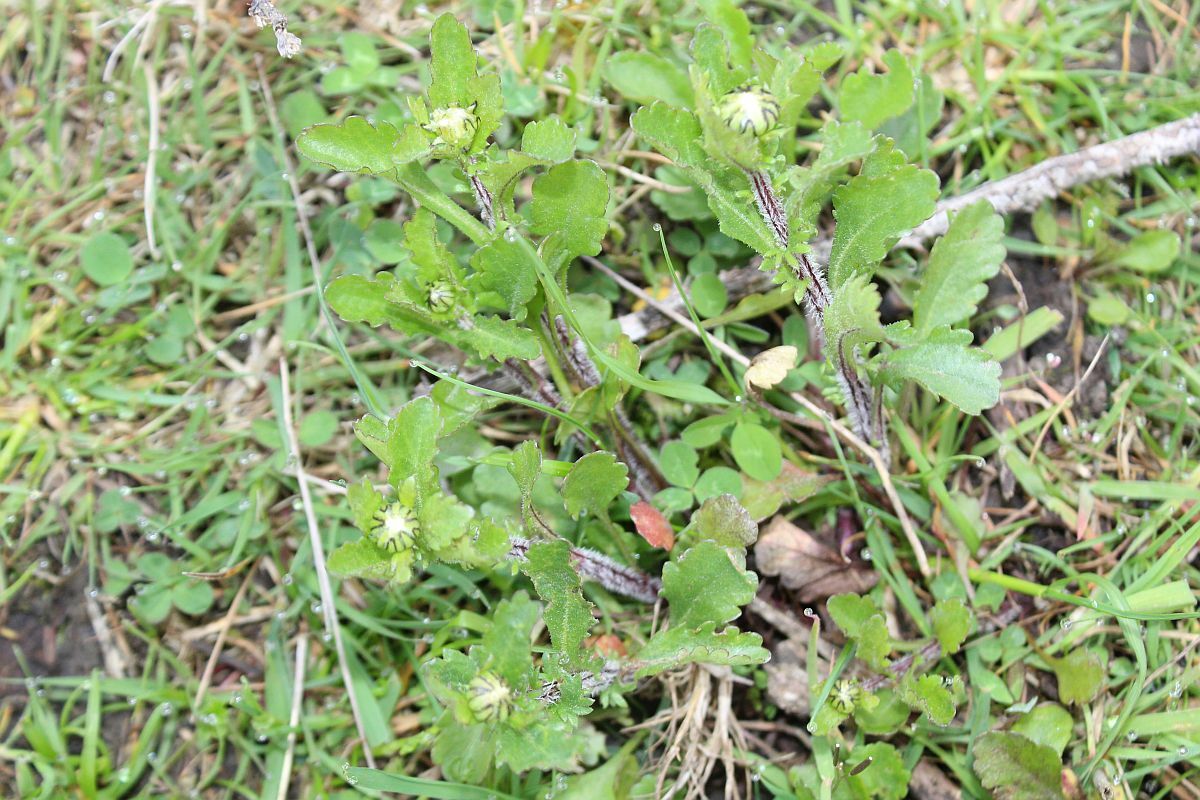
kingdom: Plantae
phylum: Tracheophyta
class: Magnoliopsida
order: Asterales
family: Asteraceae
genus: Leucanthemum
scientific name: Leucanthemum vulgare
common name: Oxeye daisy
